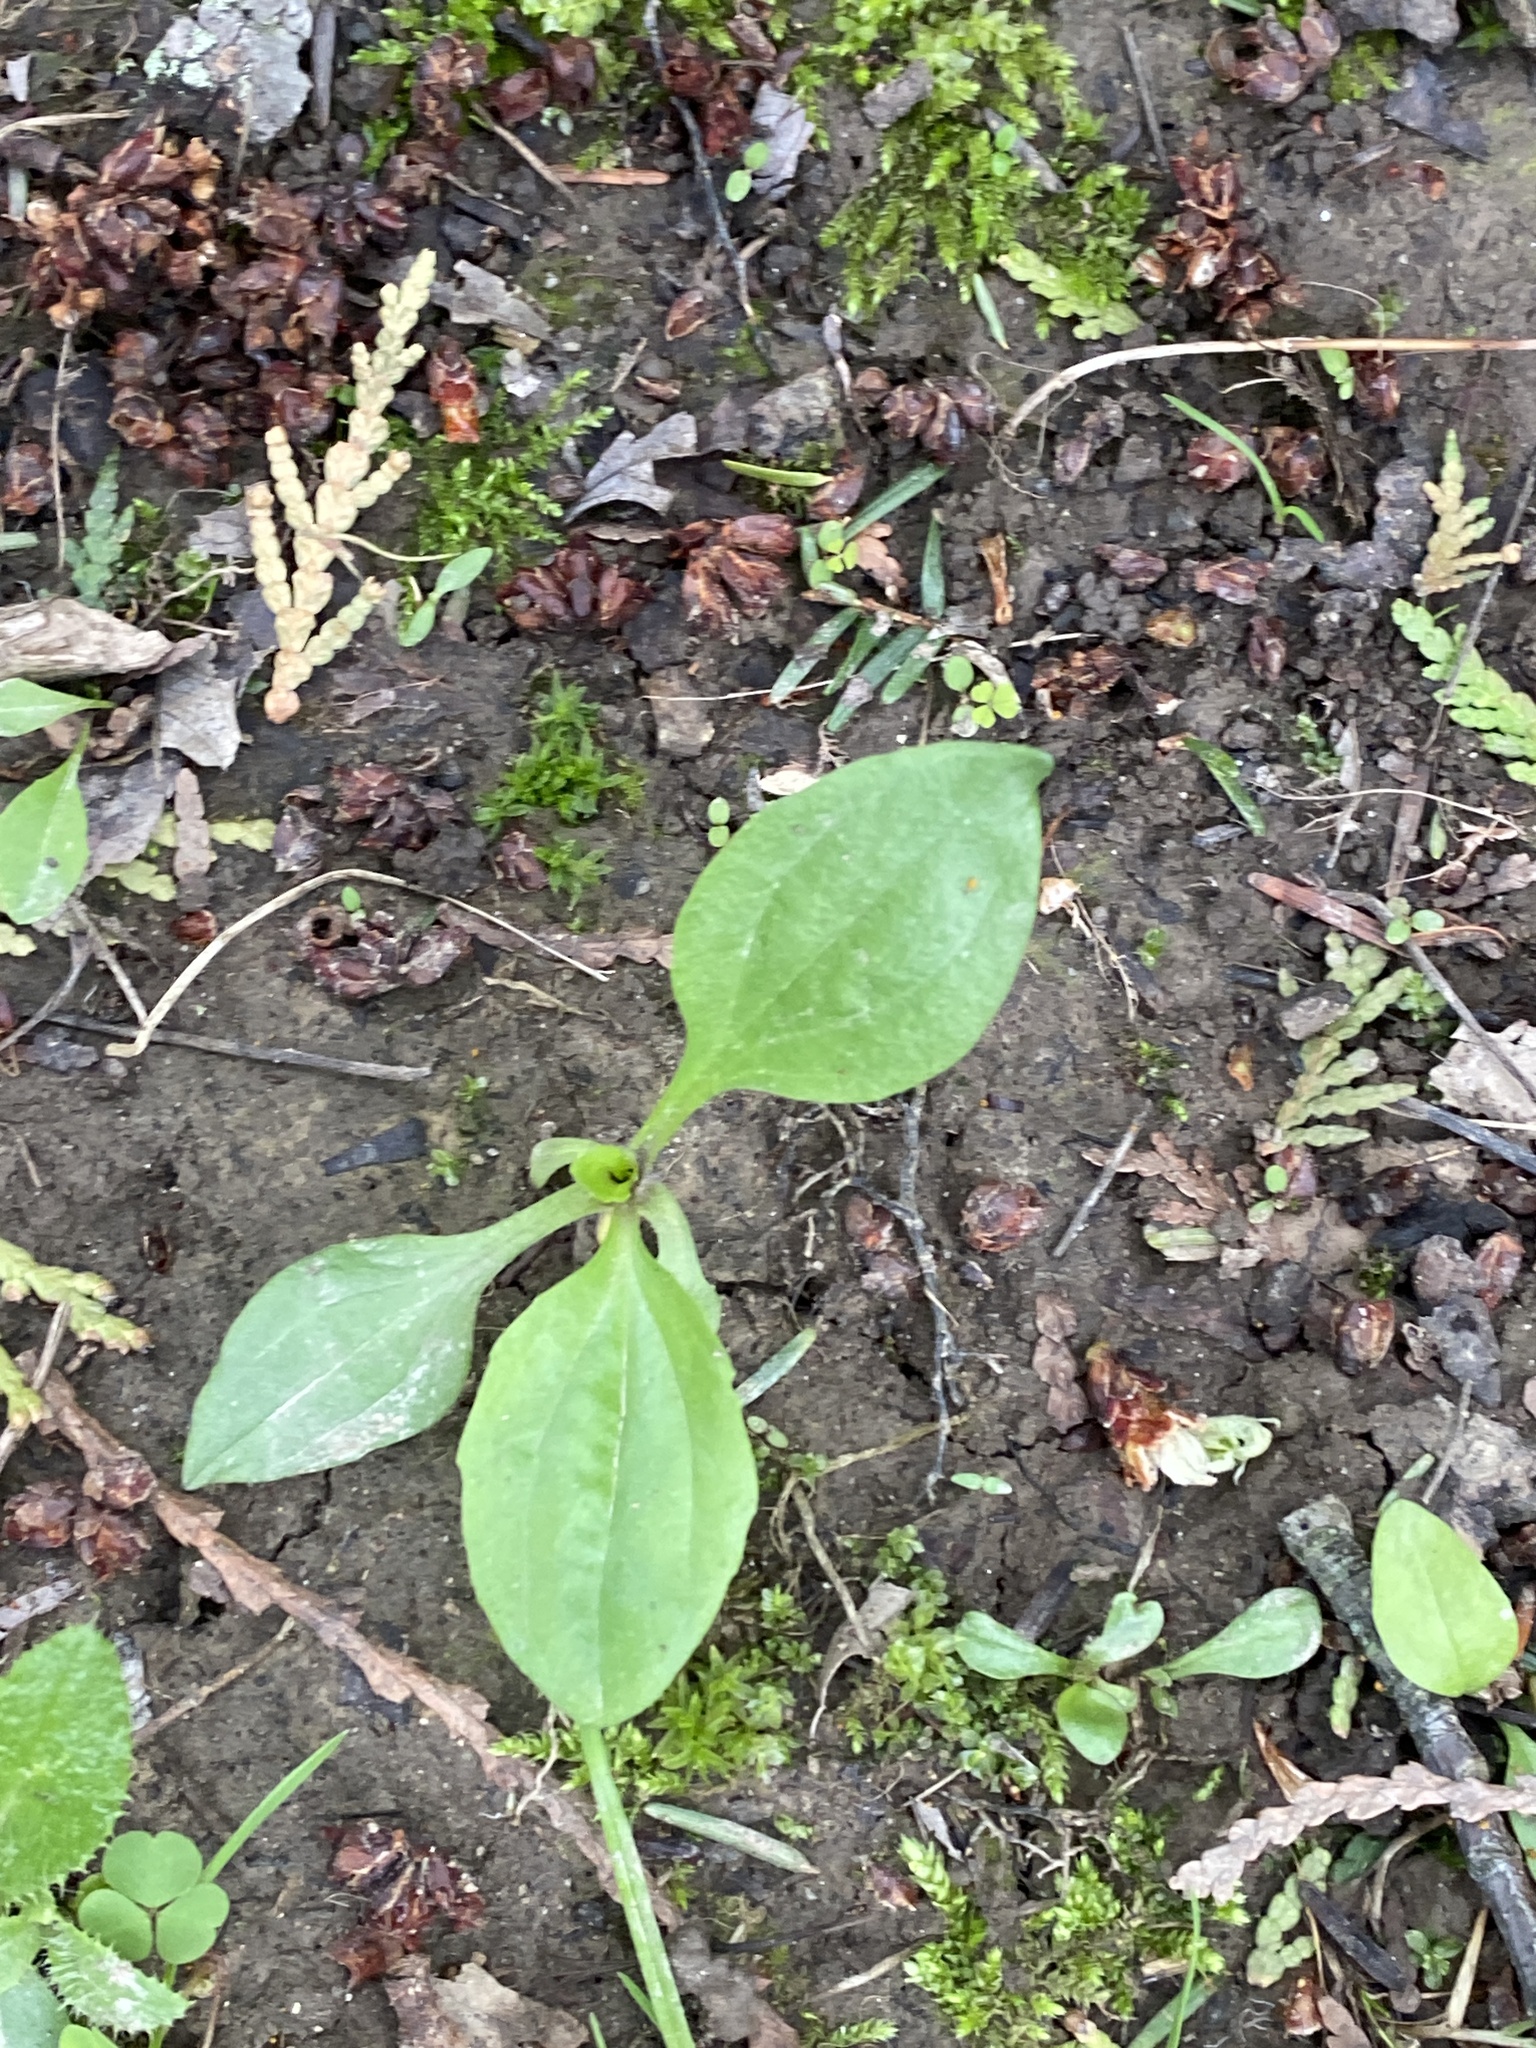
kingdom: Plantae
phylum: Tracheophyta
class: Magnoliopsida
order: Lamiales
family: Plantaginaceae
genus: Plantago
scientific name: Plantago major
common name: Common plantain
